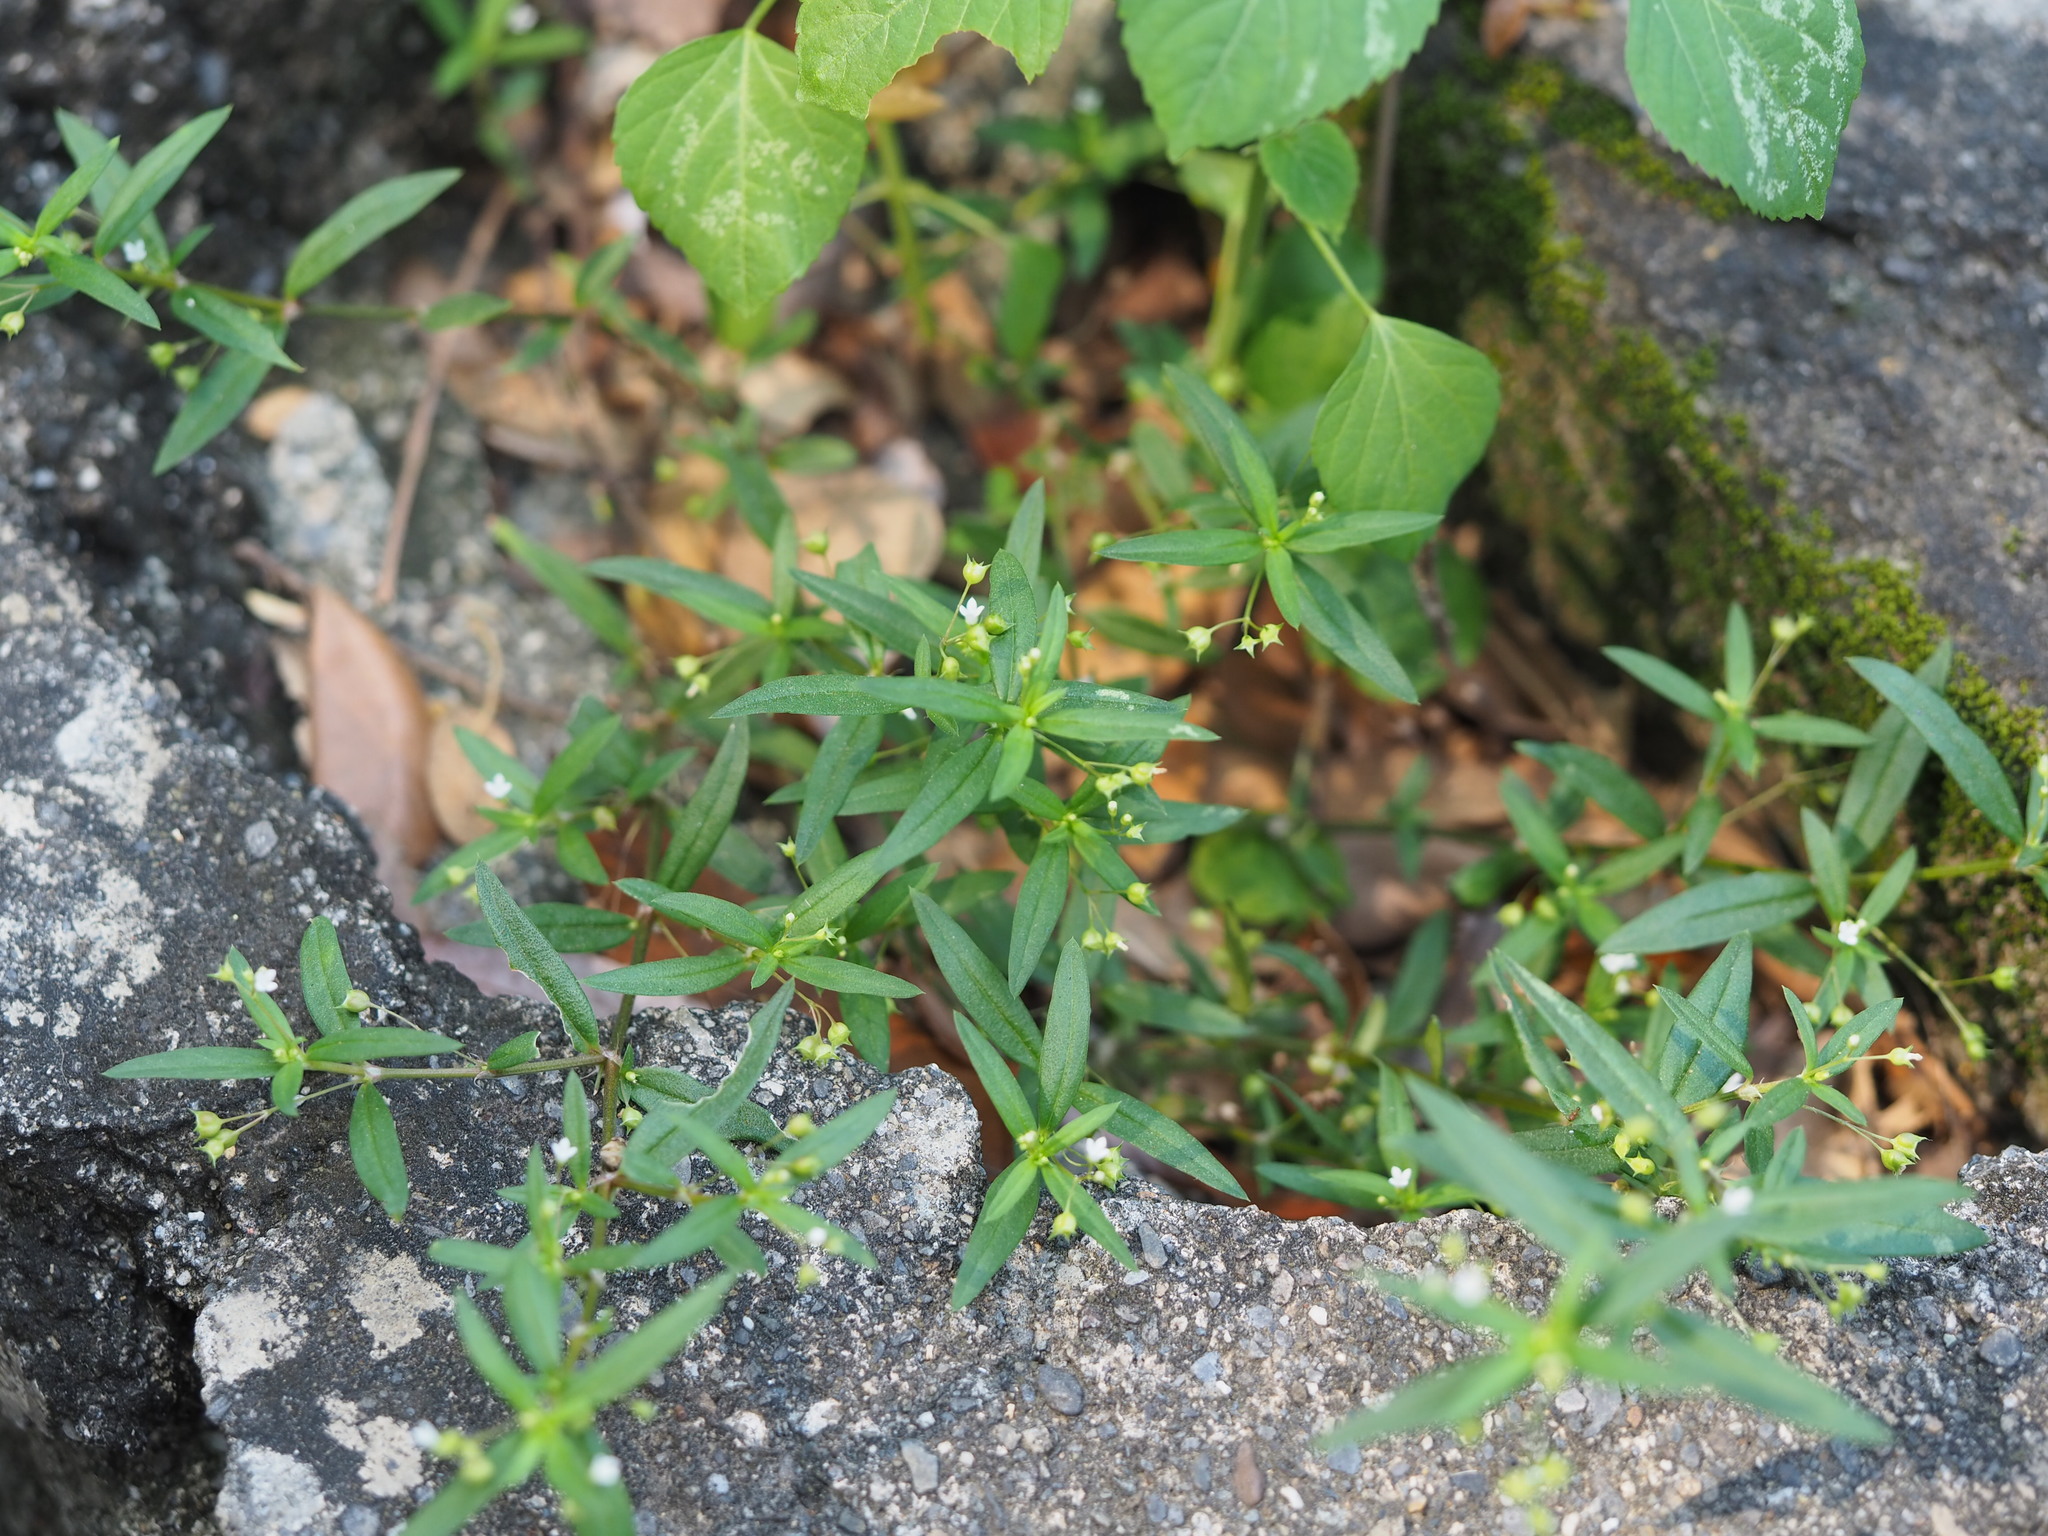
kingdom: Plantae
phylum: Tracheophyta
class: Magnoliopsida
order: Gentianales
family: Rubiaceae
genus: Oldenlandia
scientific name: Oldenlandia corymbosa
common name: Flat-top mille graines
